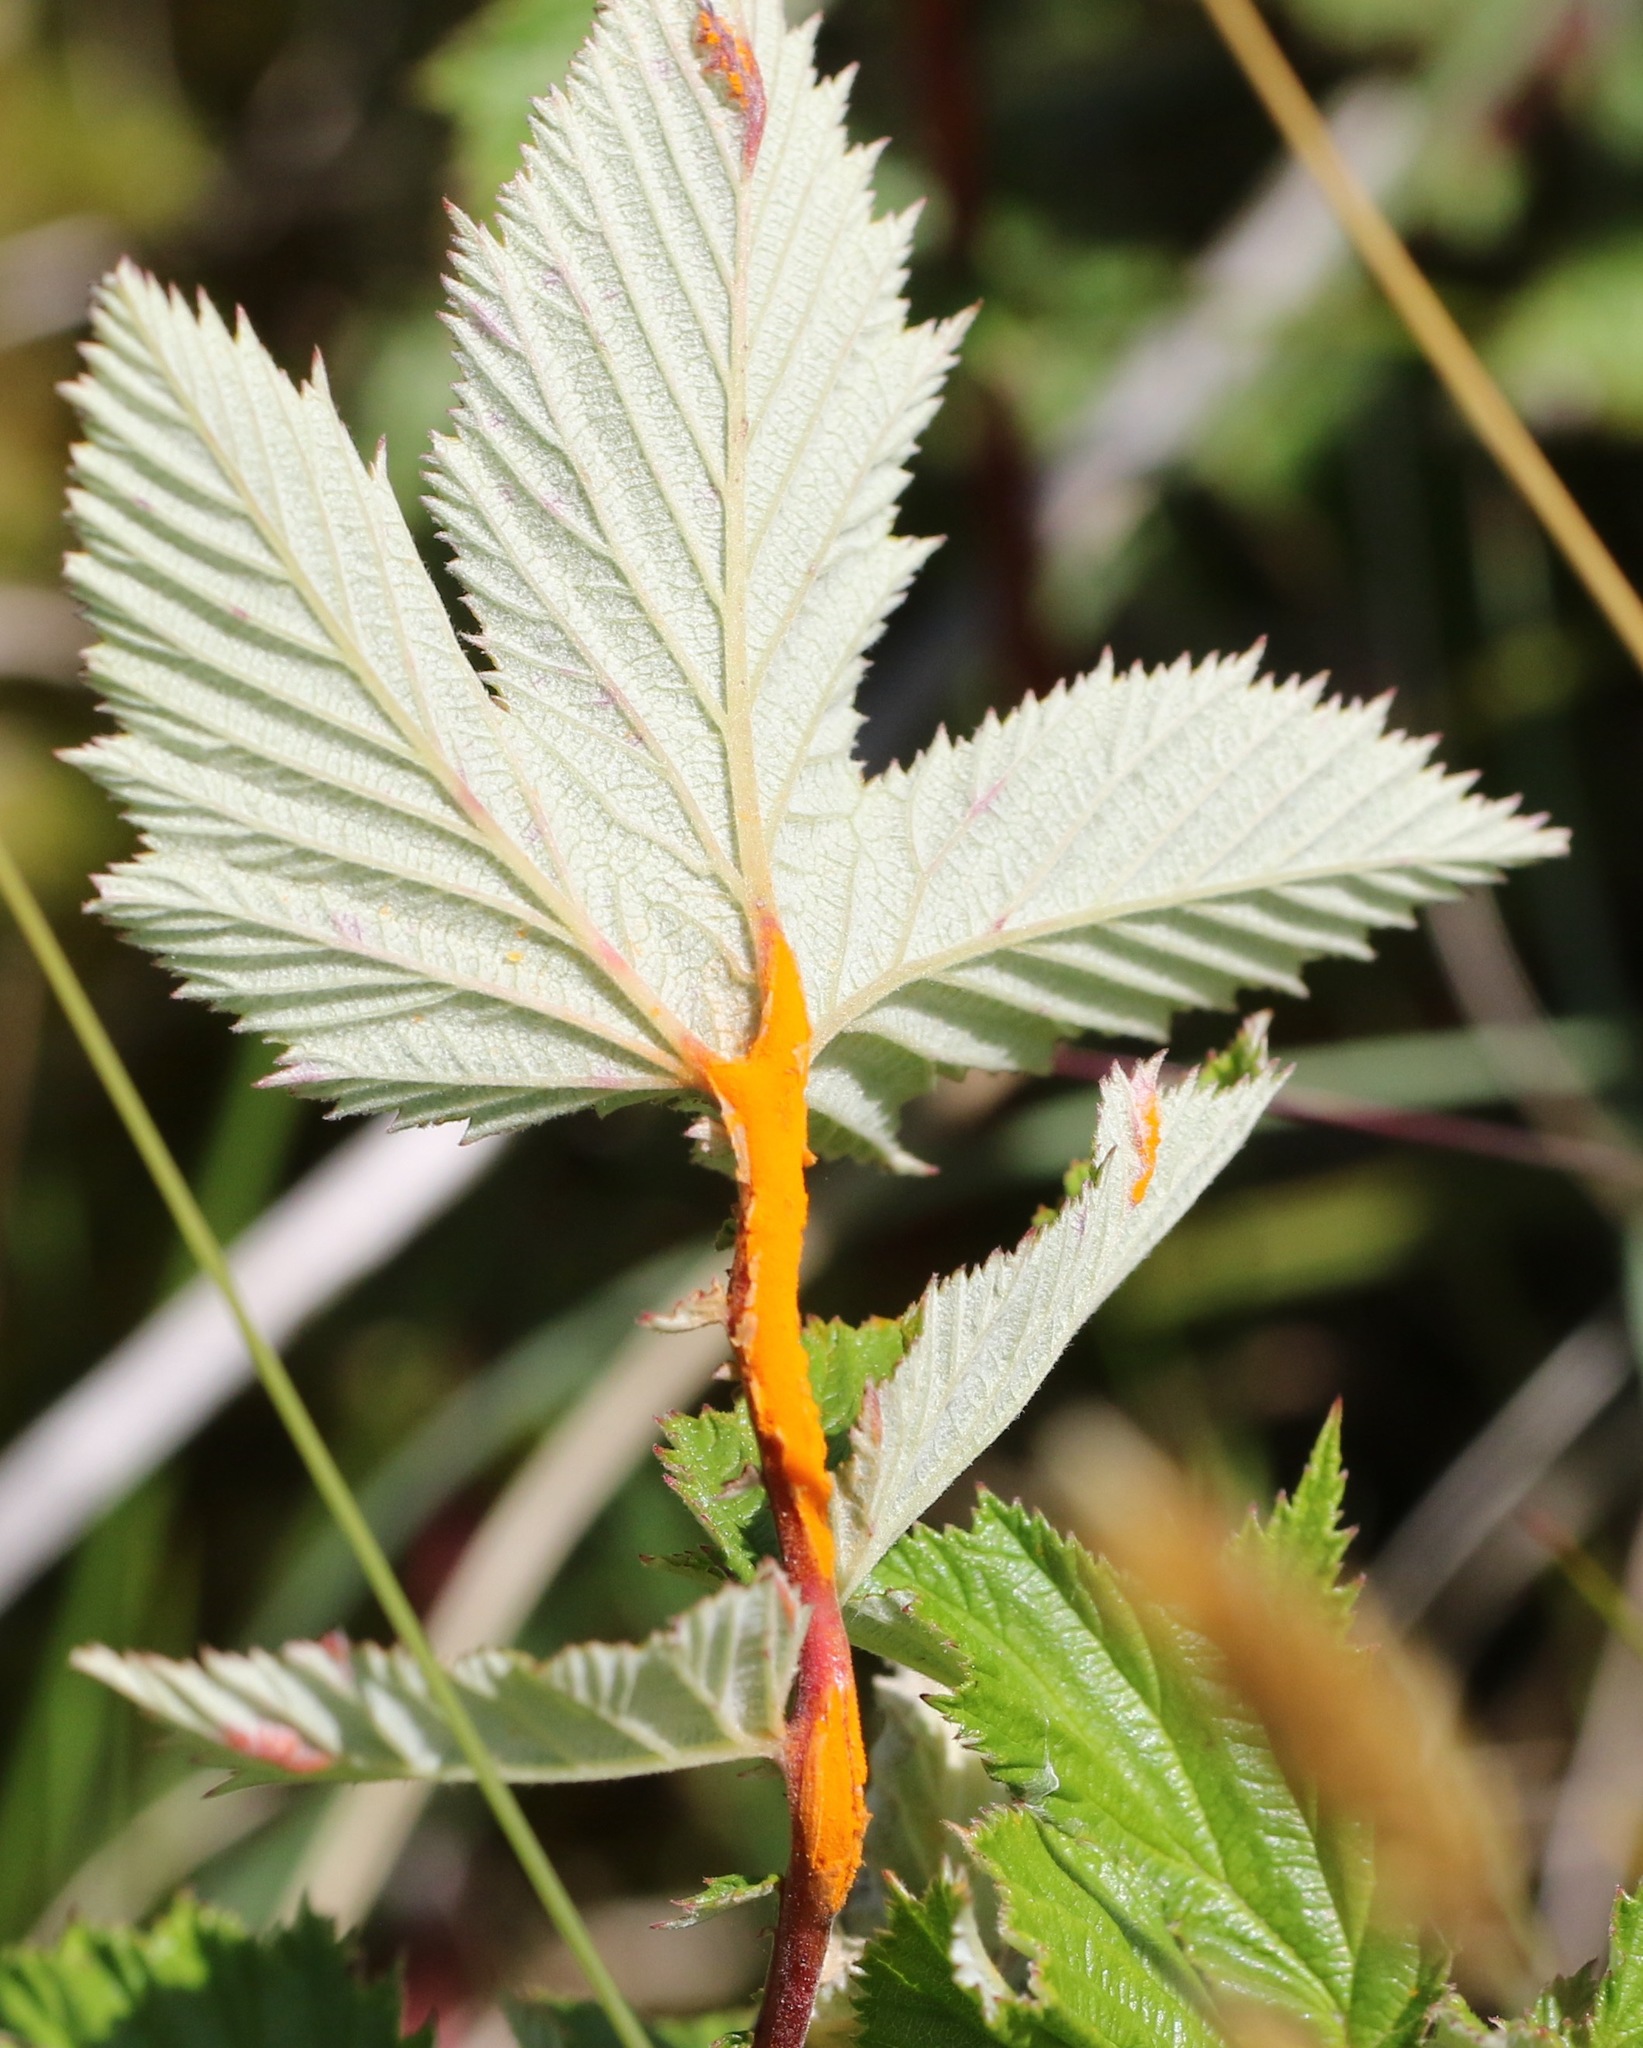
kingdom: Fungi
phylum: Basidiomycota
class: Pucciniomycetes
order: Pucciniales
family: Raveneliaceae
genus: Triphragmium
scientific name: Triphragmium ulmariae
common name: Meadowsweet rust
